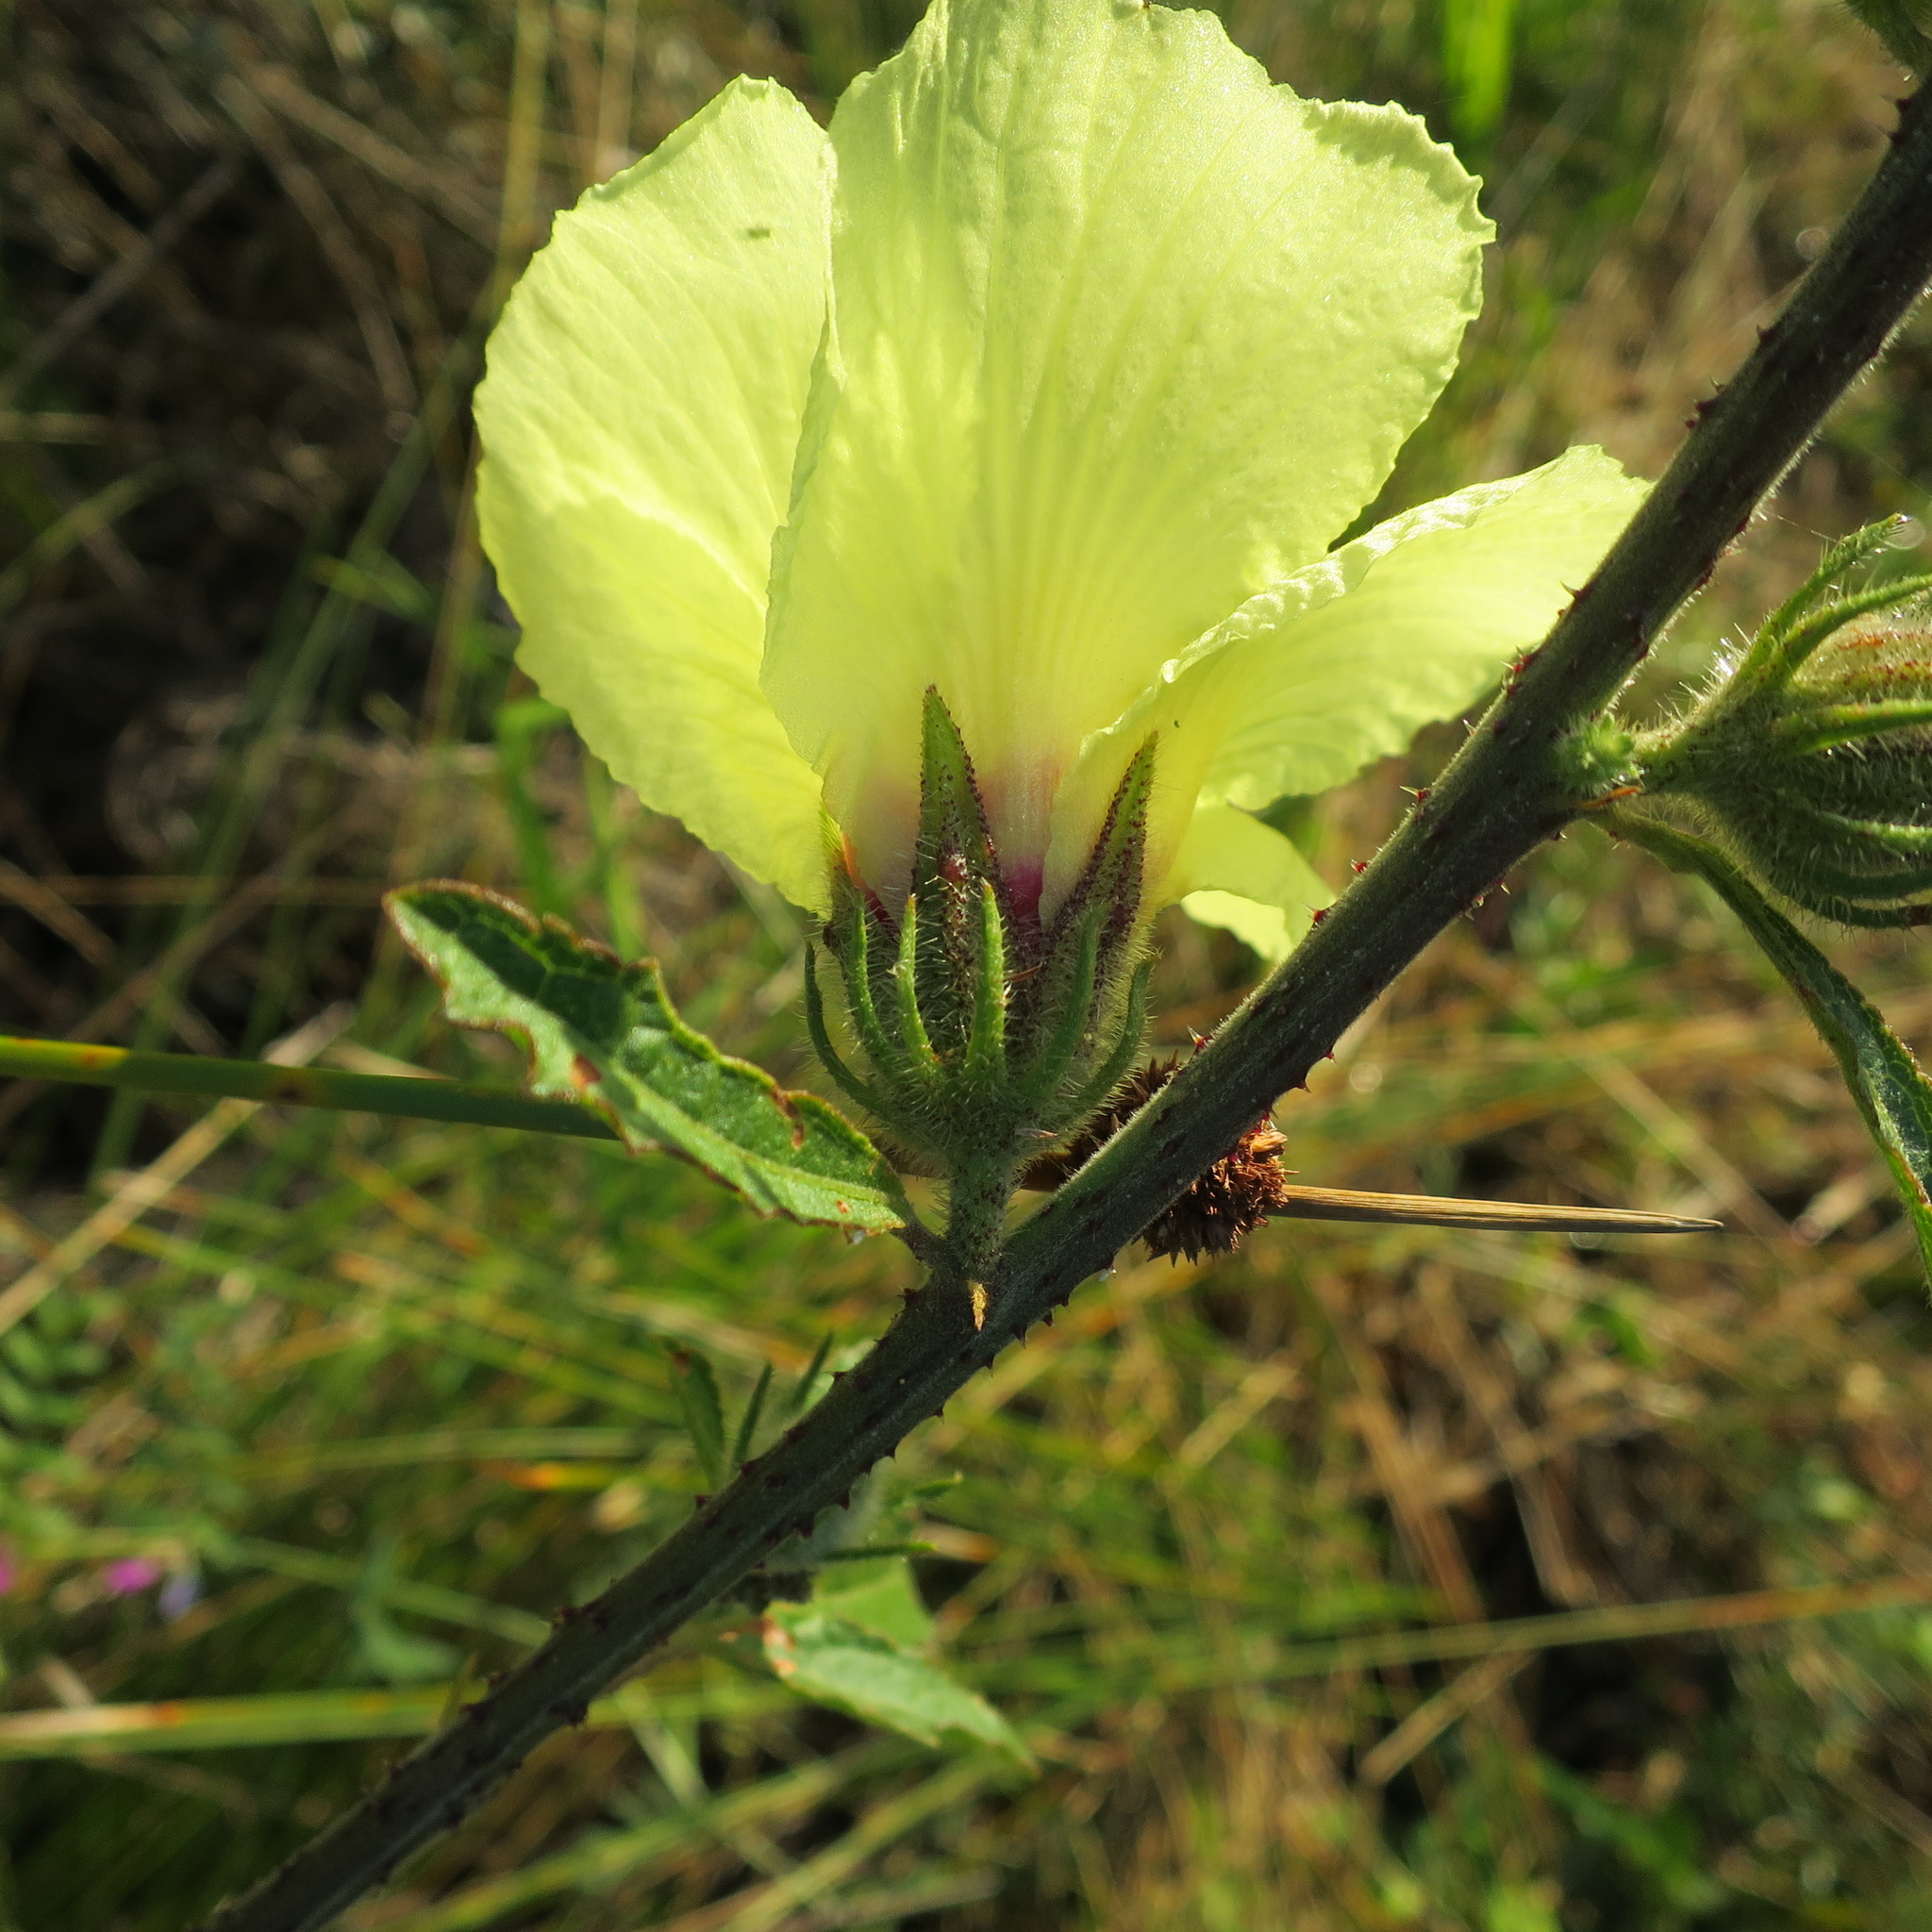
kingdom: Plantae
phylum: Tracheophyta
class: Magnoliopsida
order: Malvales
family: Malvaceae
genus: Hibiscus
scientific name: Hibiscus diversifolius
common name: Cape hibiscus
